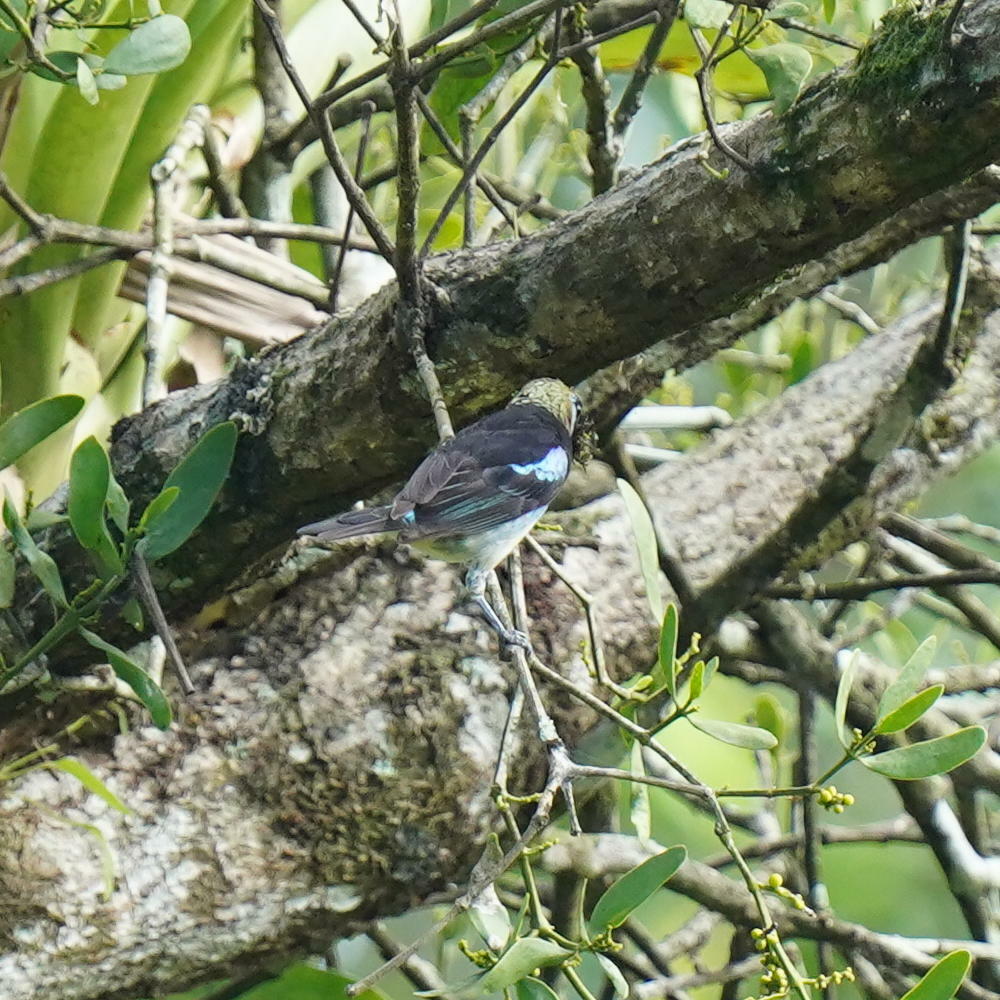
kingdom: Animalia
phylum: Chordata
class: Aves
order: Passeriformes
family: Thraupidae
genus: Stilpnia
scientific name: Stilpnia larvata
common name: Golden-hooded tanager
